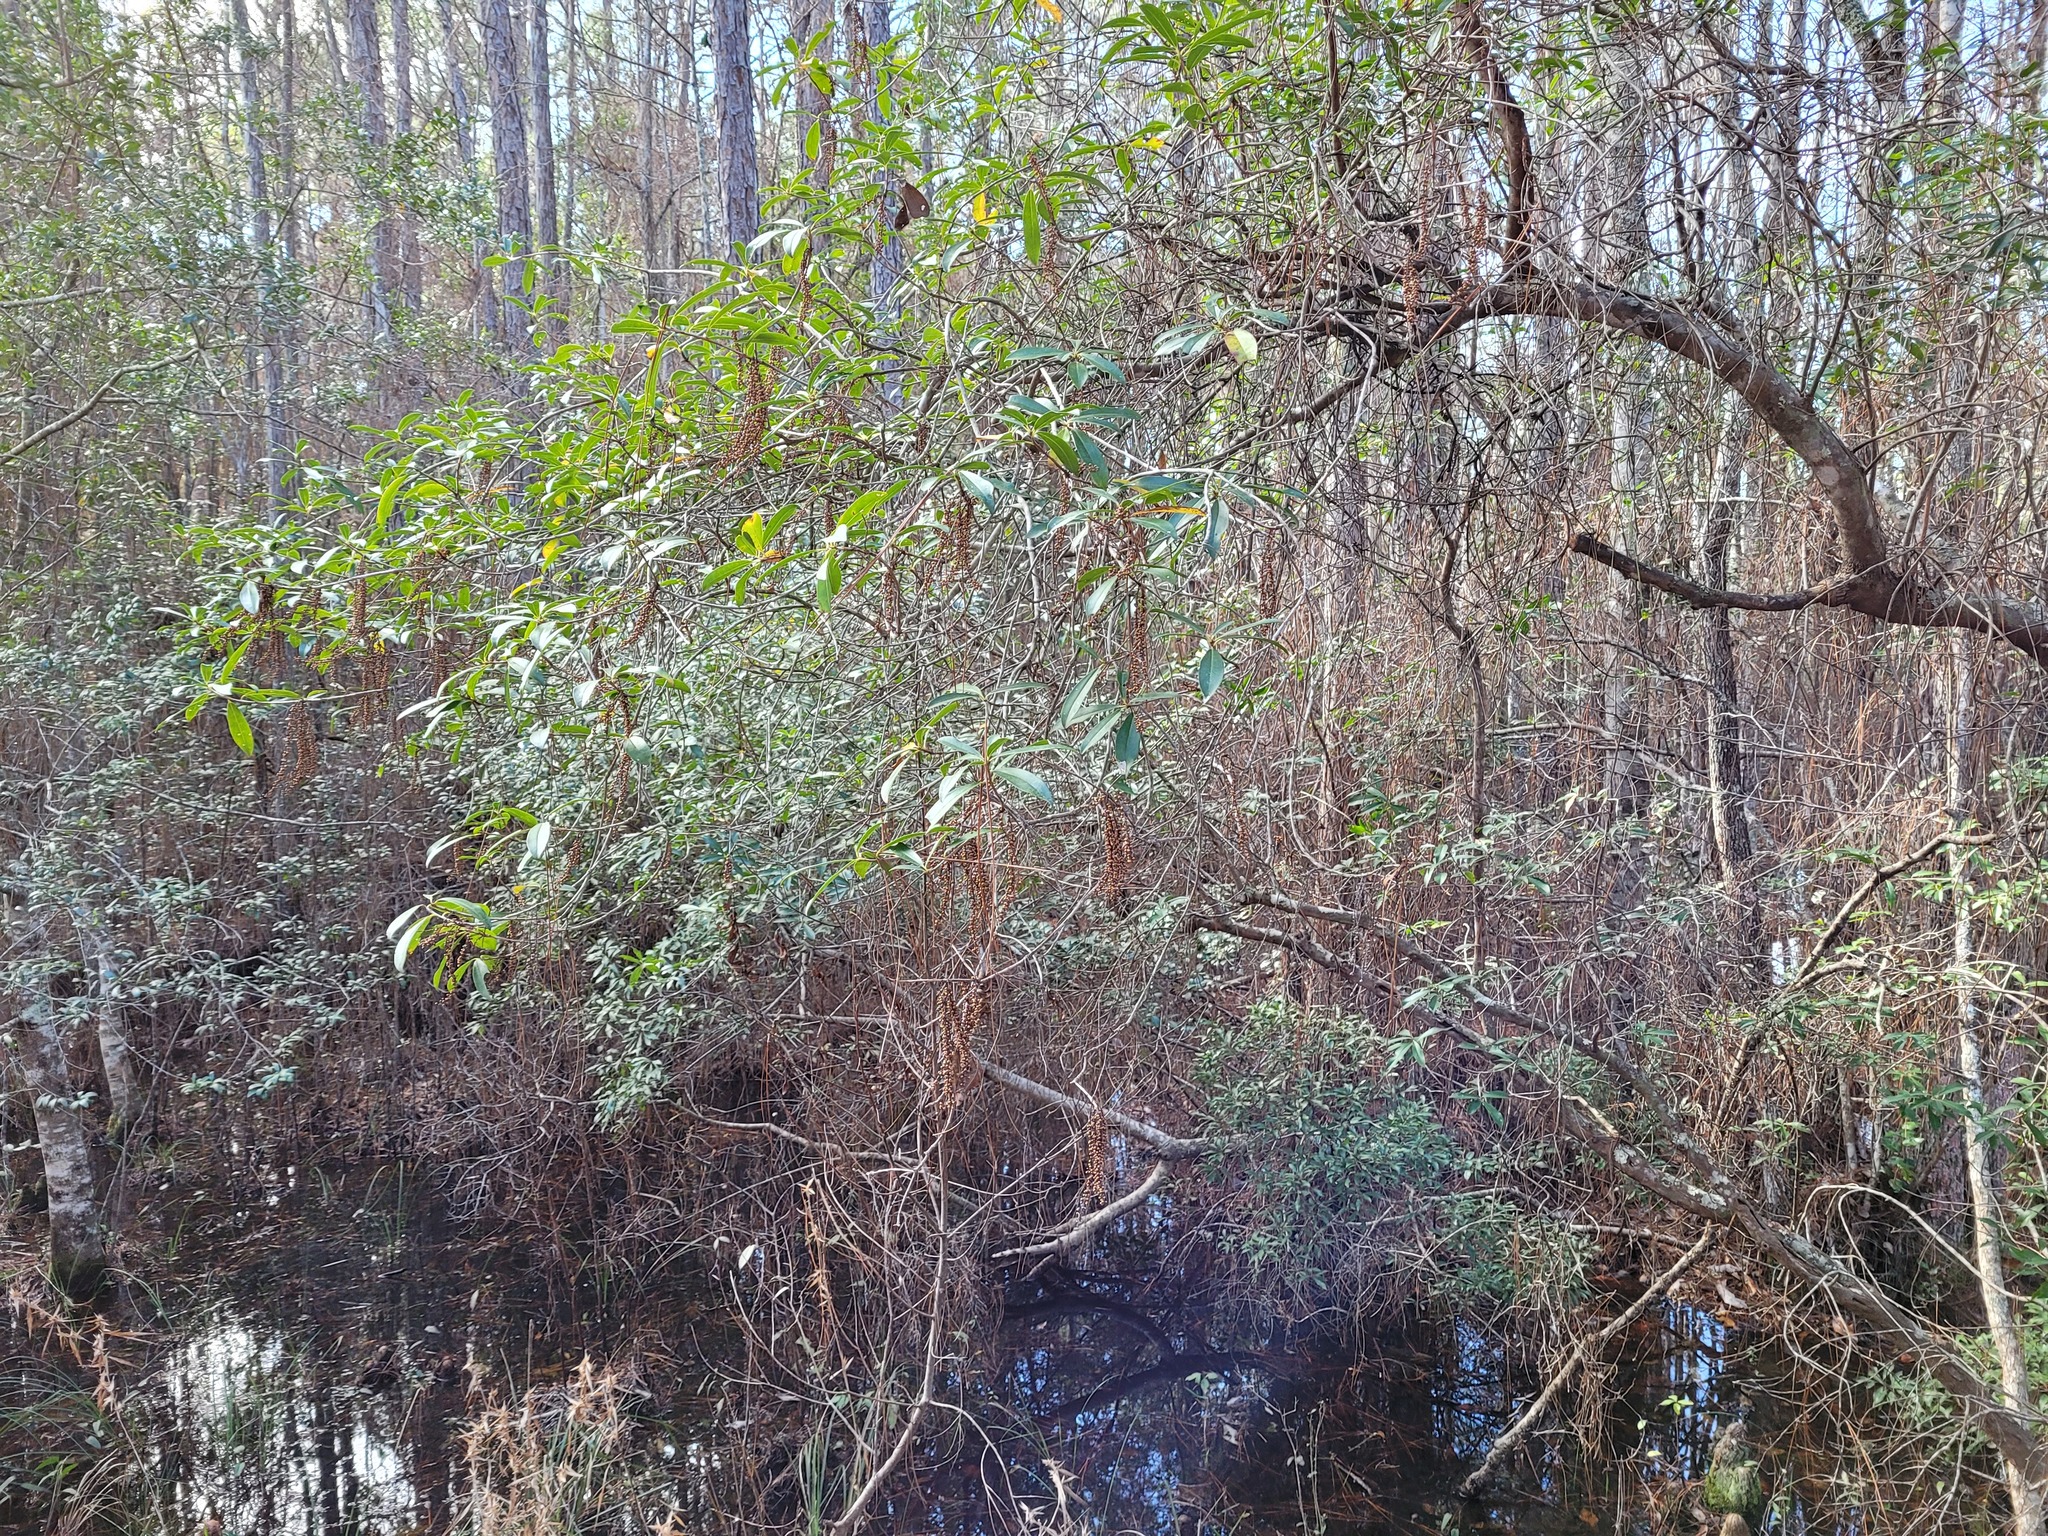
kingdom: Plantae
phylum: Tracheophyta
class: Magnoliopsida
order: Ericales
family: Cyrillaceae
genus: Cyrilla
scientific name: Cyrilla racemiflora
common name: Black titi
